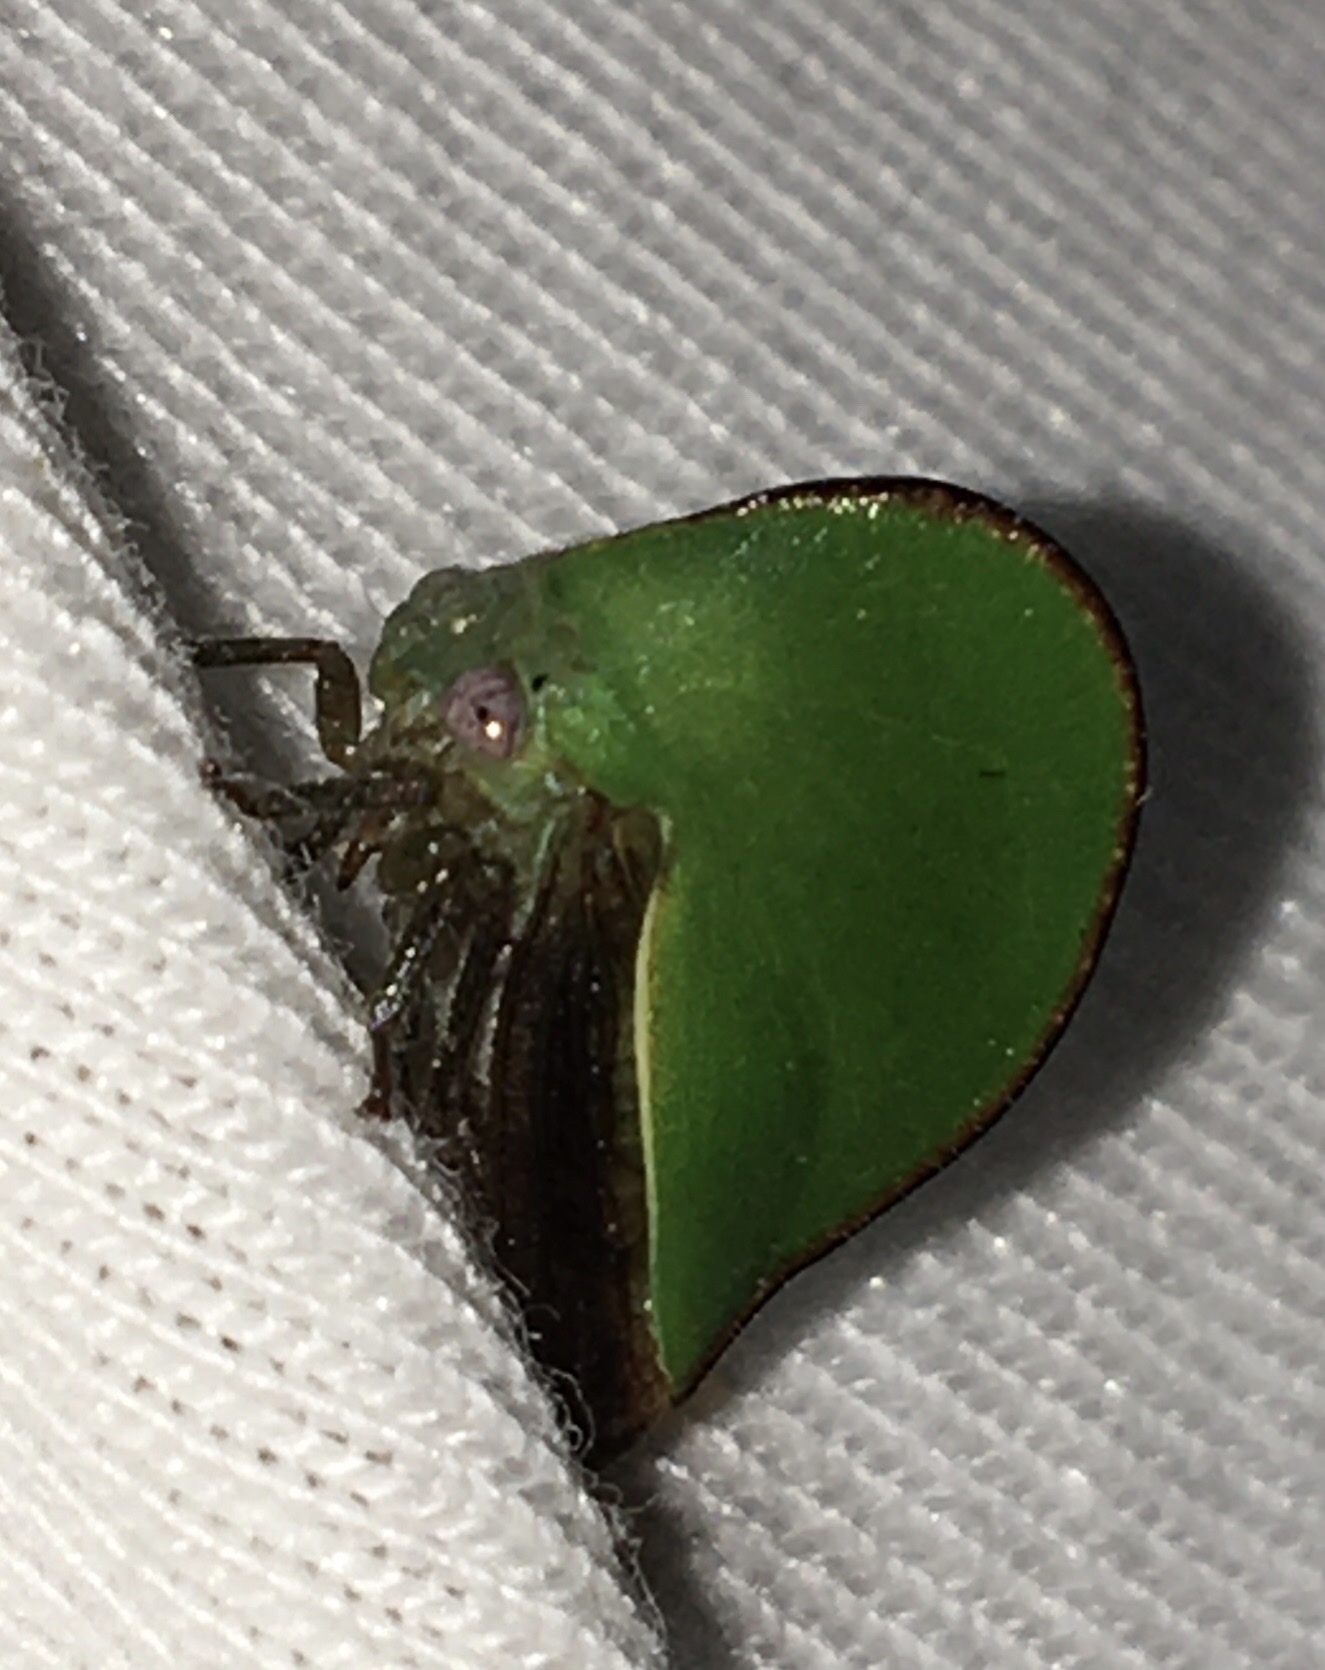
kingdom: Animalia
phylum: Arthropoda
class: Insecta
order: Hemiptera
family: Membracidae
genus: Archasia
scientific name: Archasia belfragei
